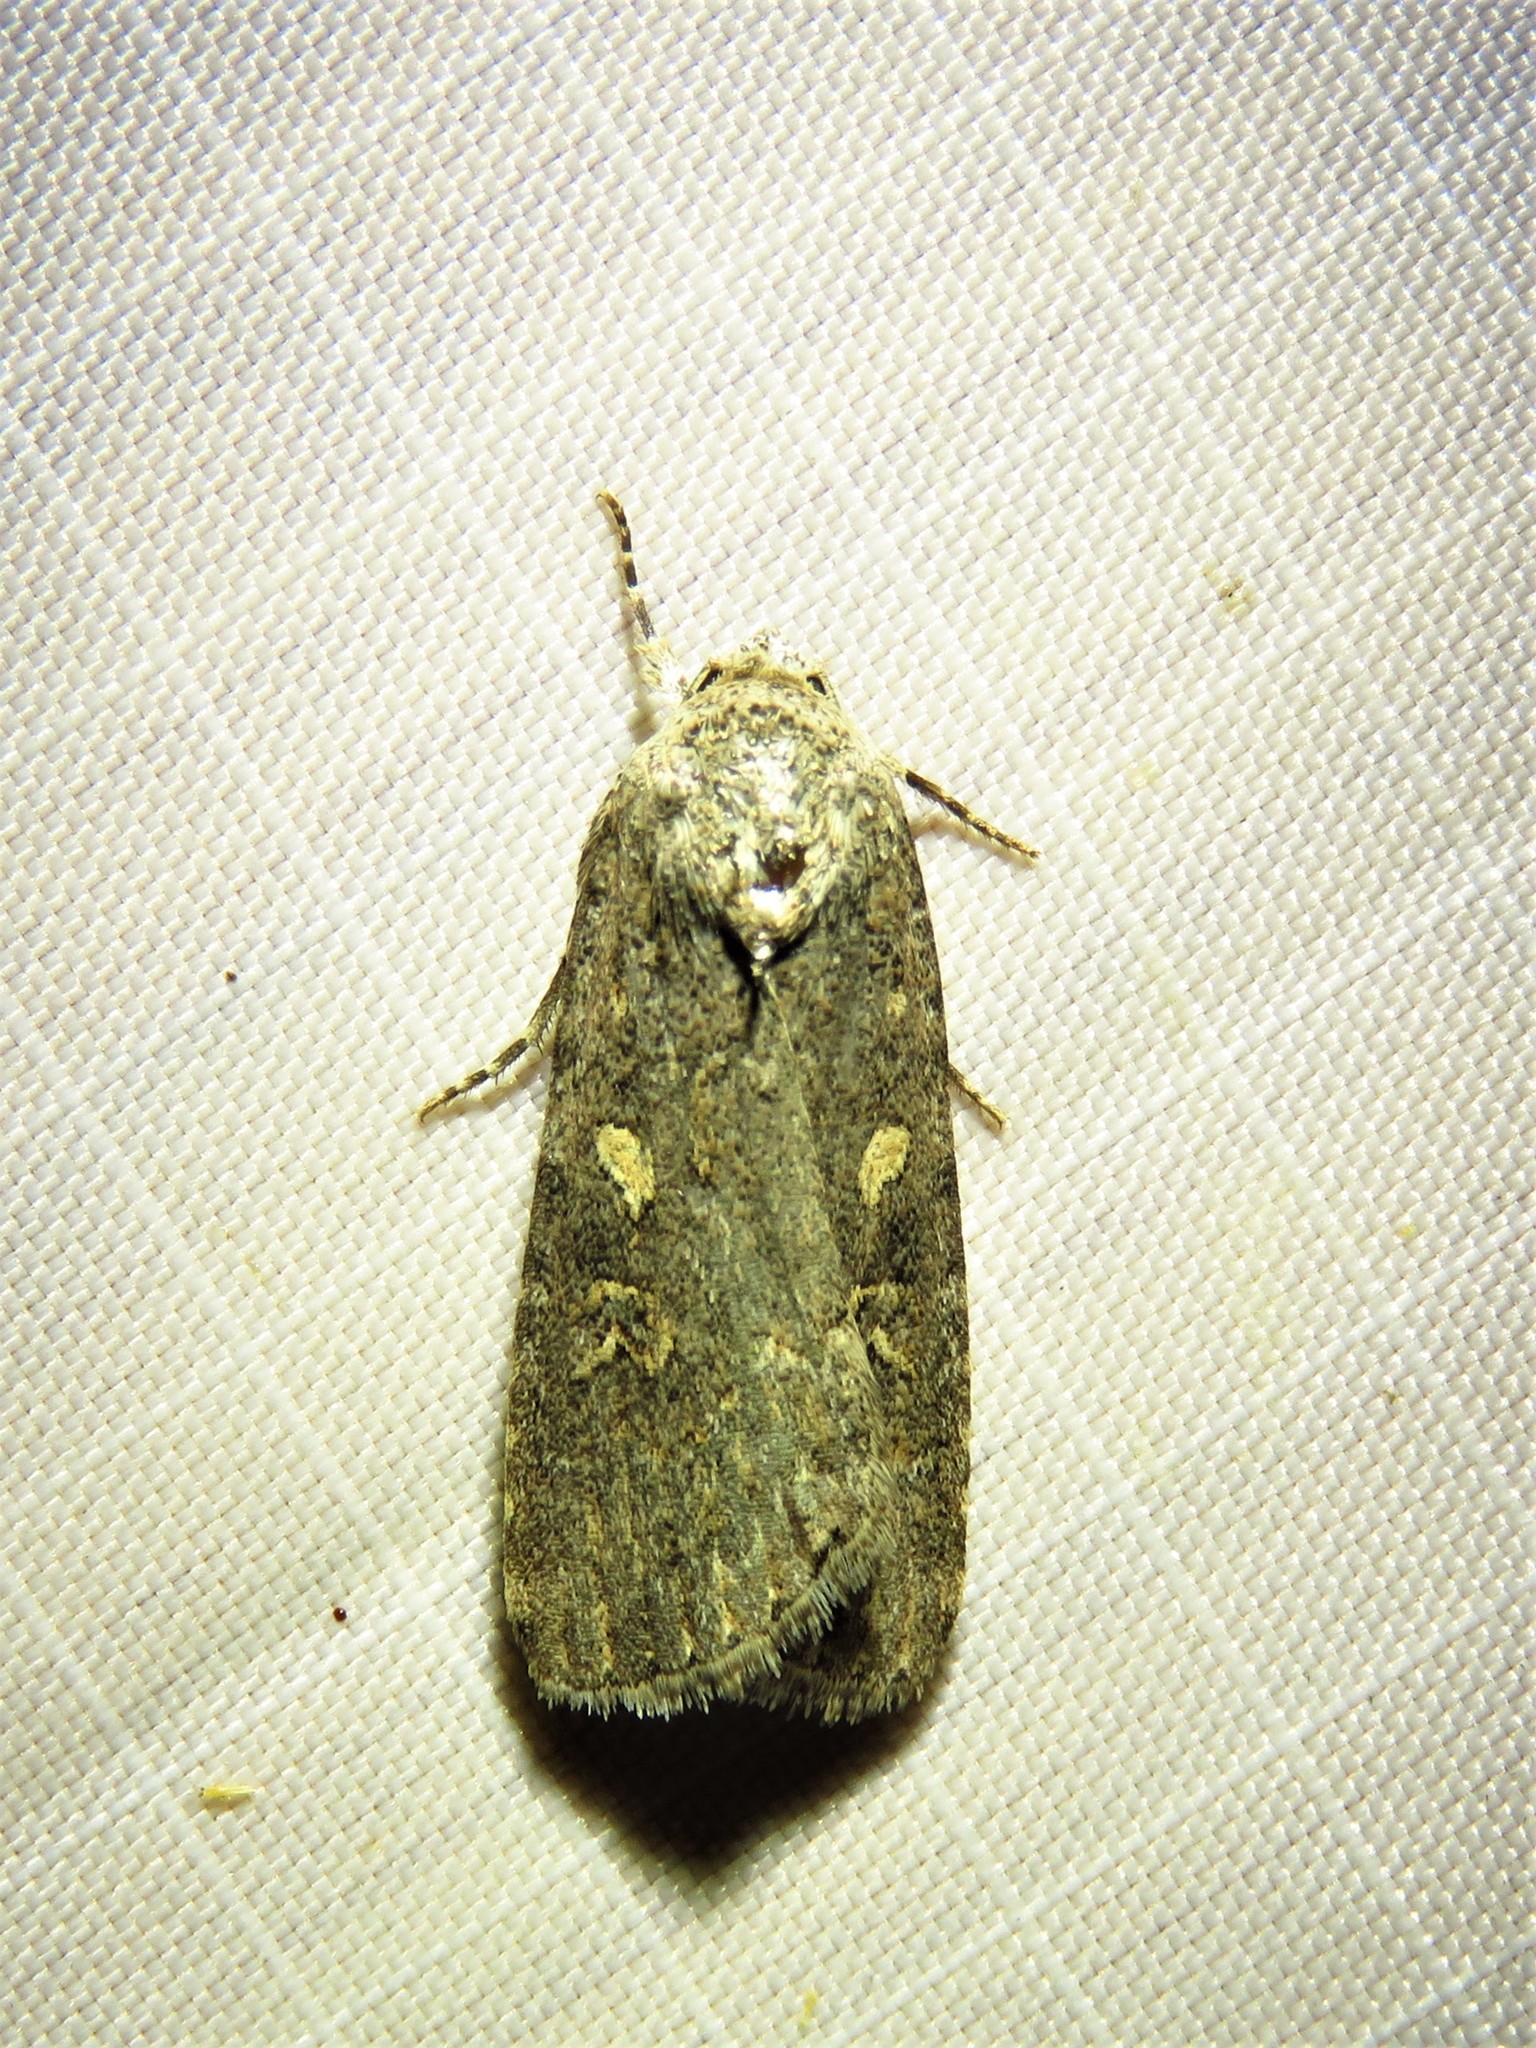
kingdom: Animalia
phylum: Arthropoda
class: Insecta
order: Lepidoptera
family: Noctuidae
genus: Spodoptera
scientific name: Spodoptera exigua
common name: Beet armyworm
